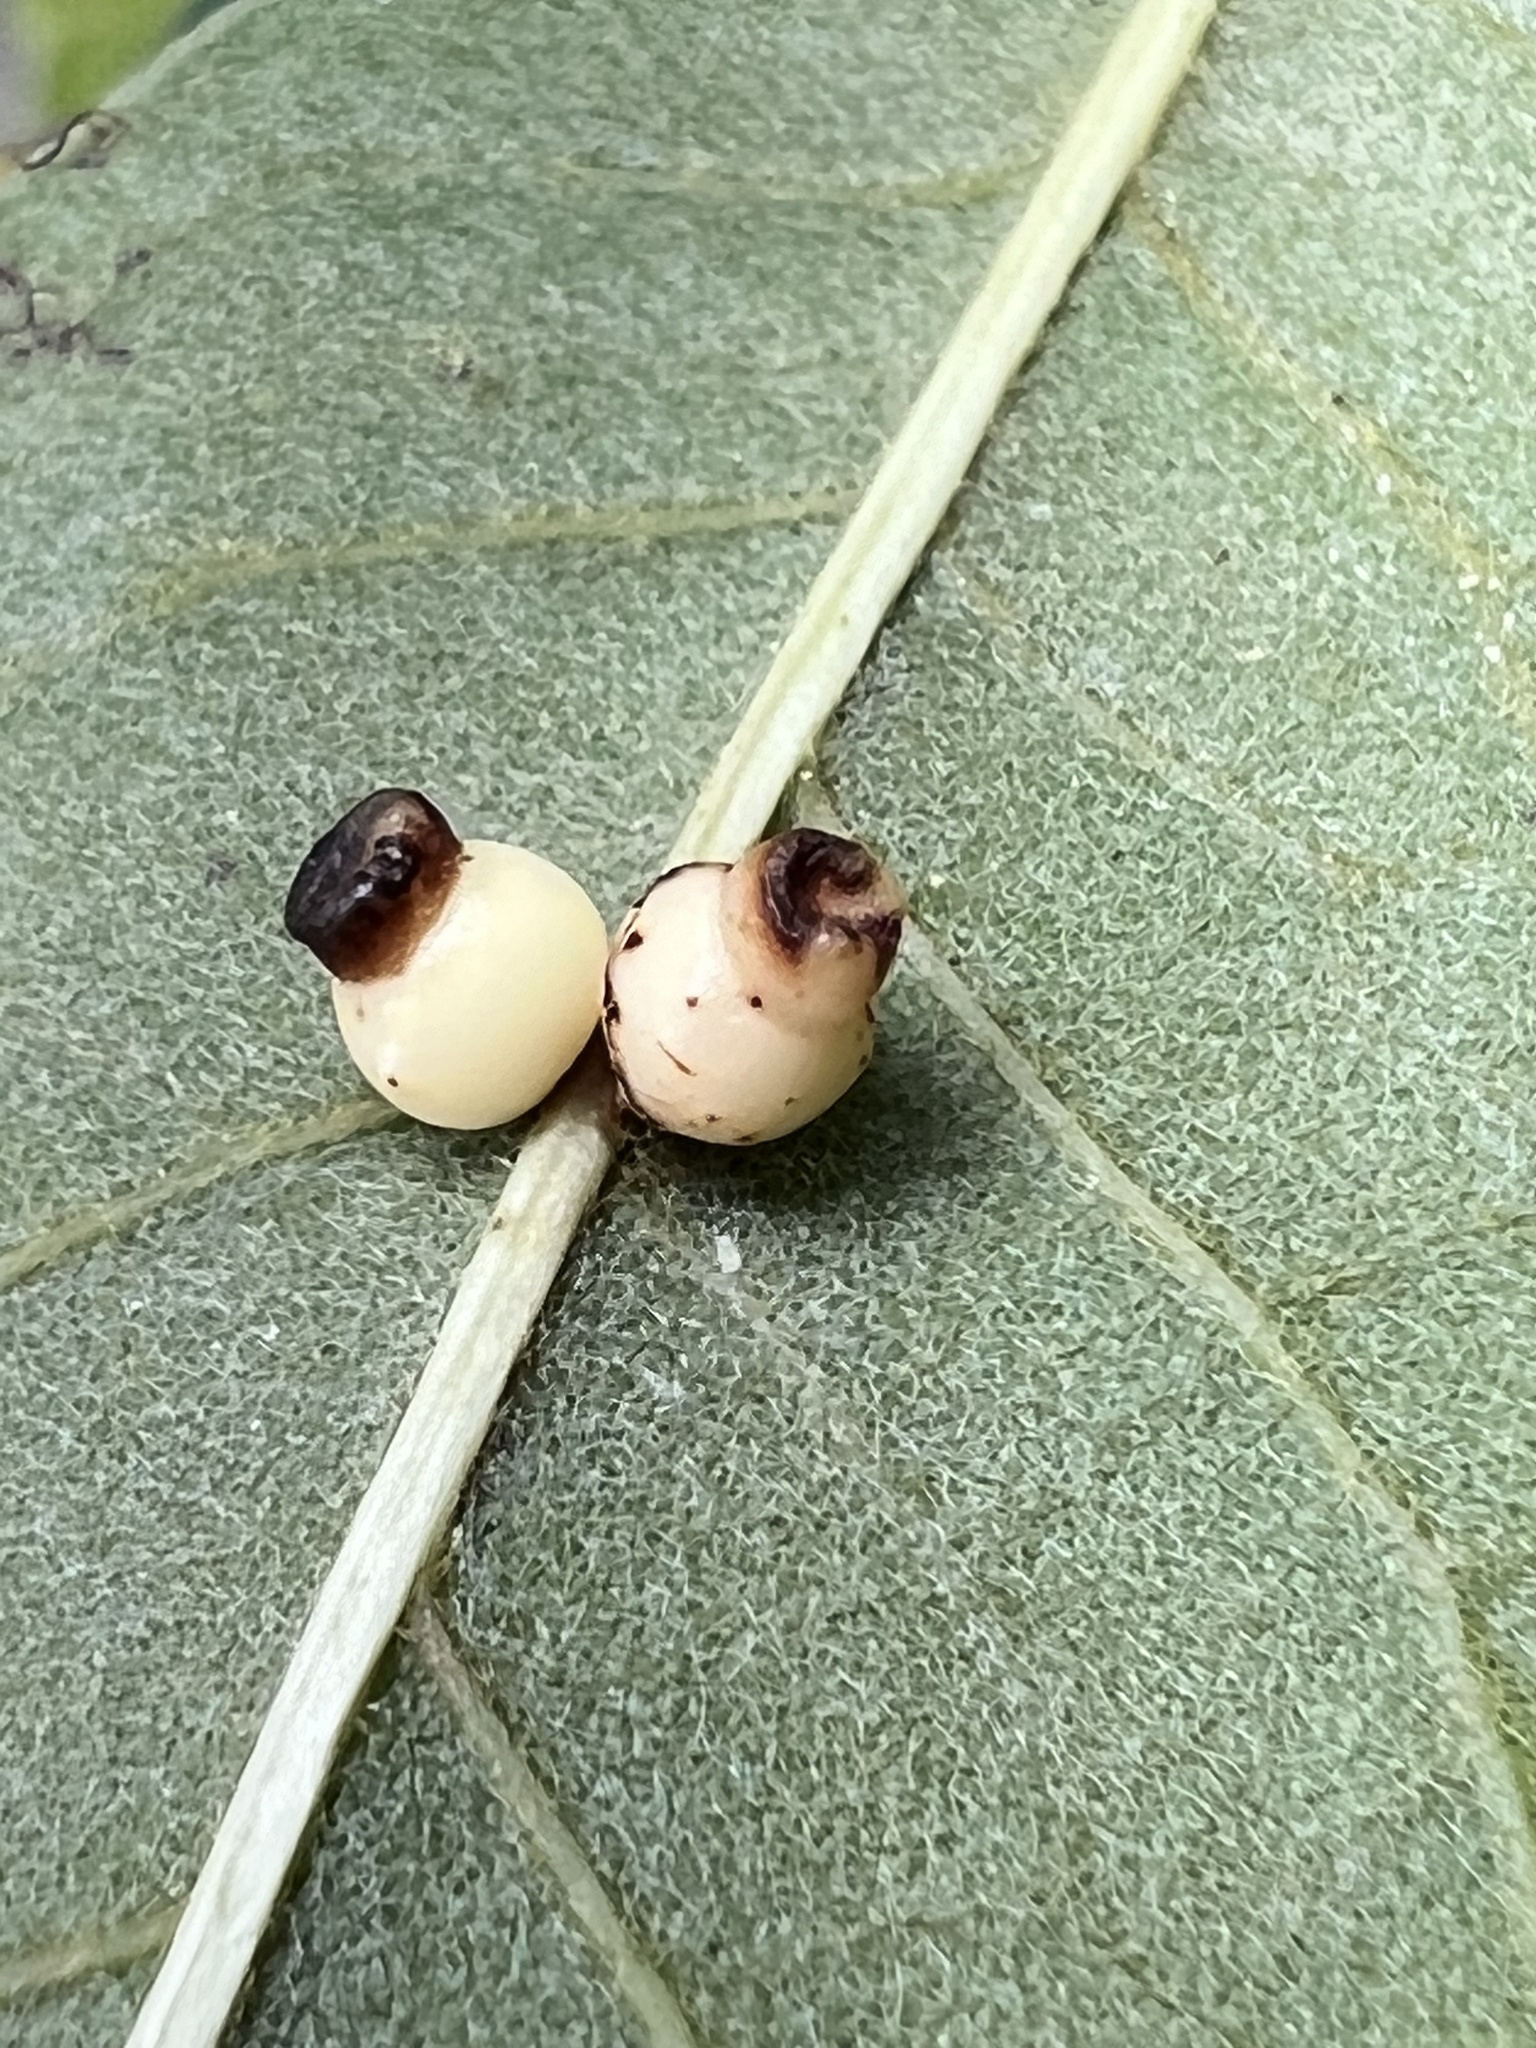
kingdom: Animalia
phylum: Arthropoda
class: Insecta
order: Hymenoptera
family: Cynipidae
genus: Kokkocynips
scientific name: Kokkocynips rileyi
